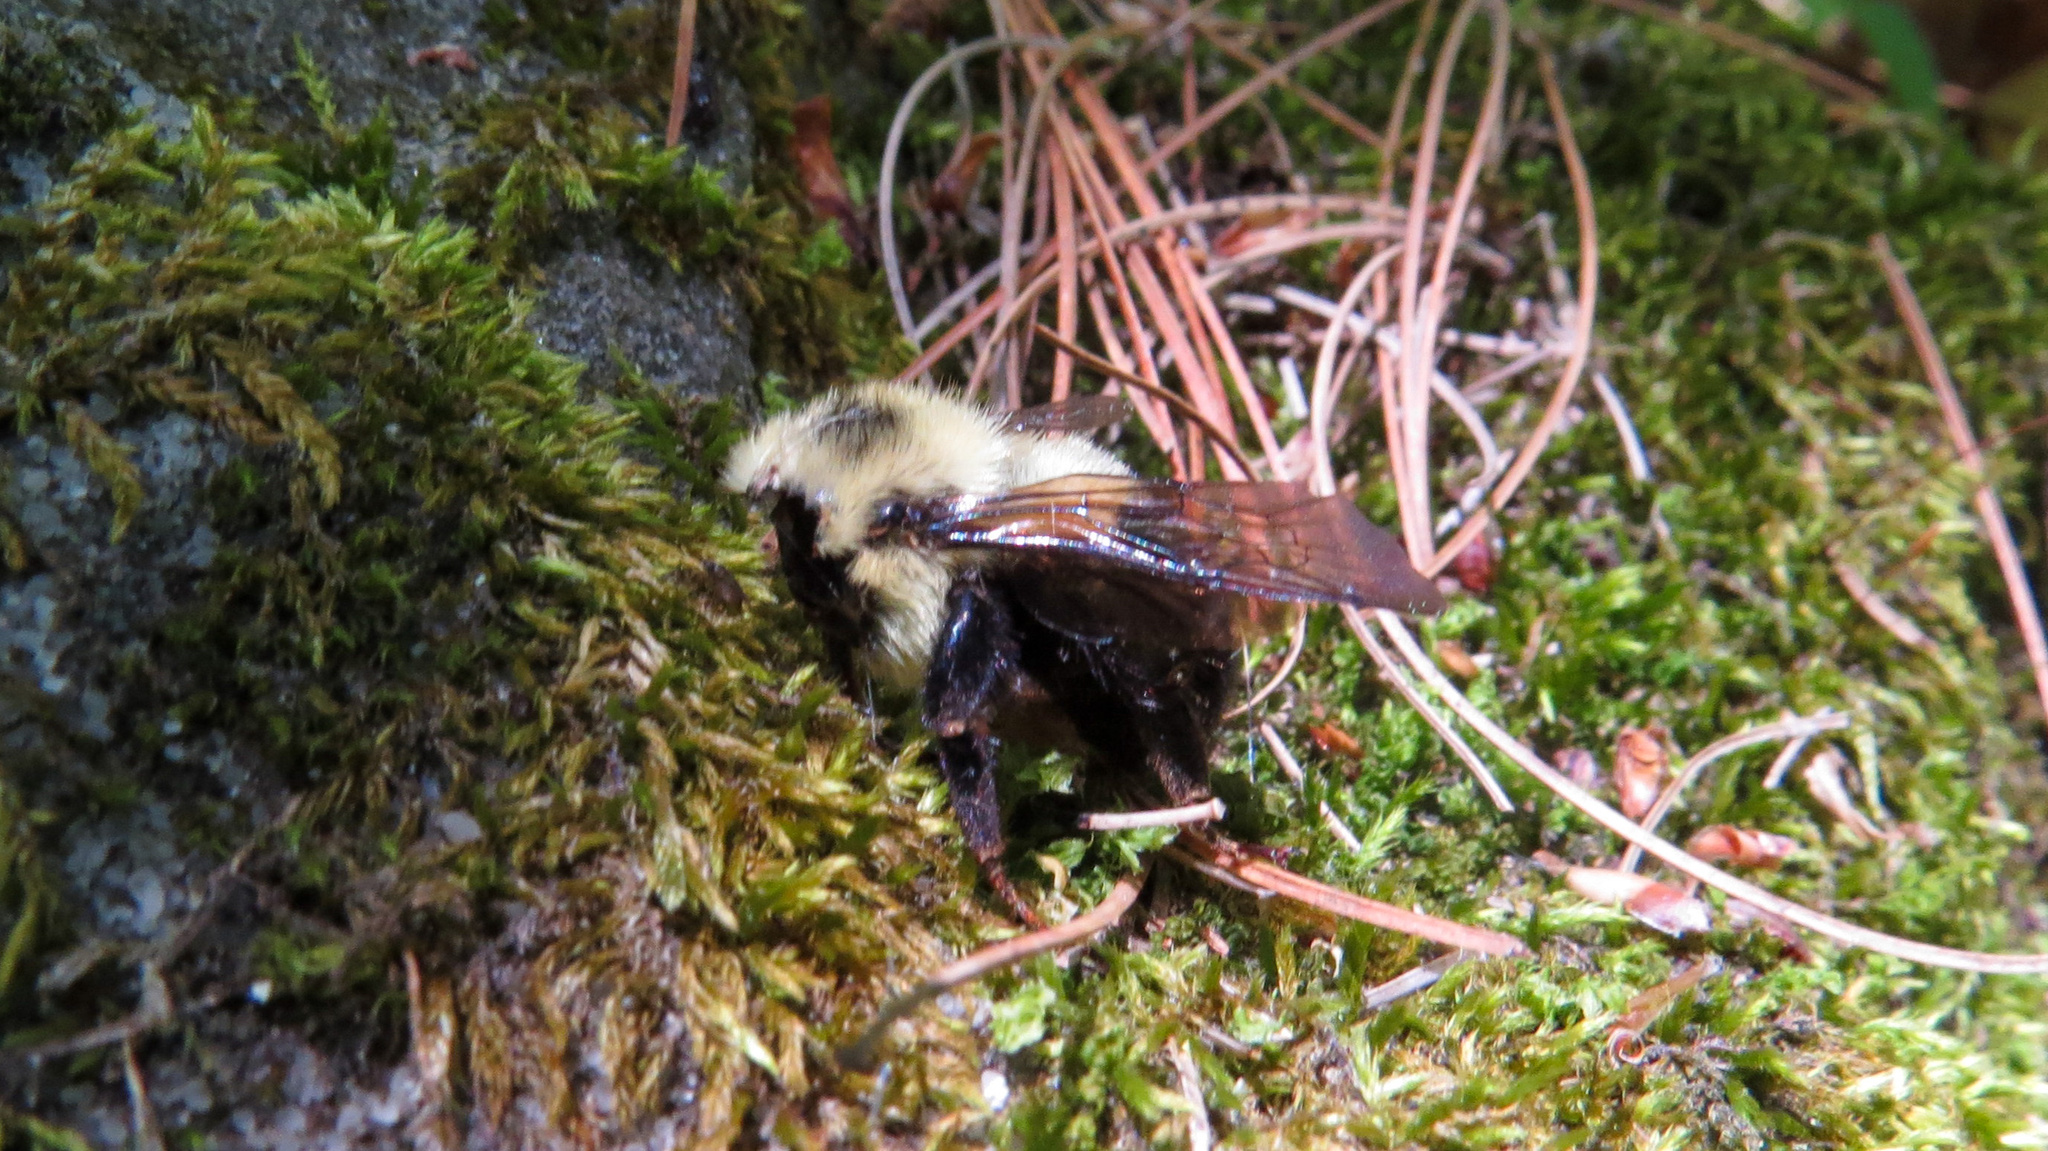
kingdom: Animalia
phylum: Arthropoda
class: Insecta
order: Hymenoptera
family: Apidae
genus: Bombus
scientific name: Bombus bimaculatus
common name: Two-spotted bumble bee
